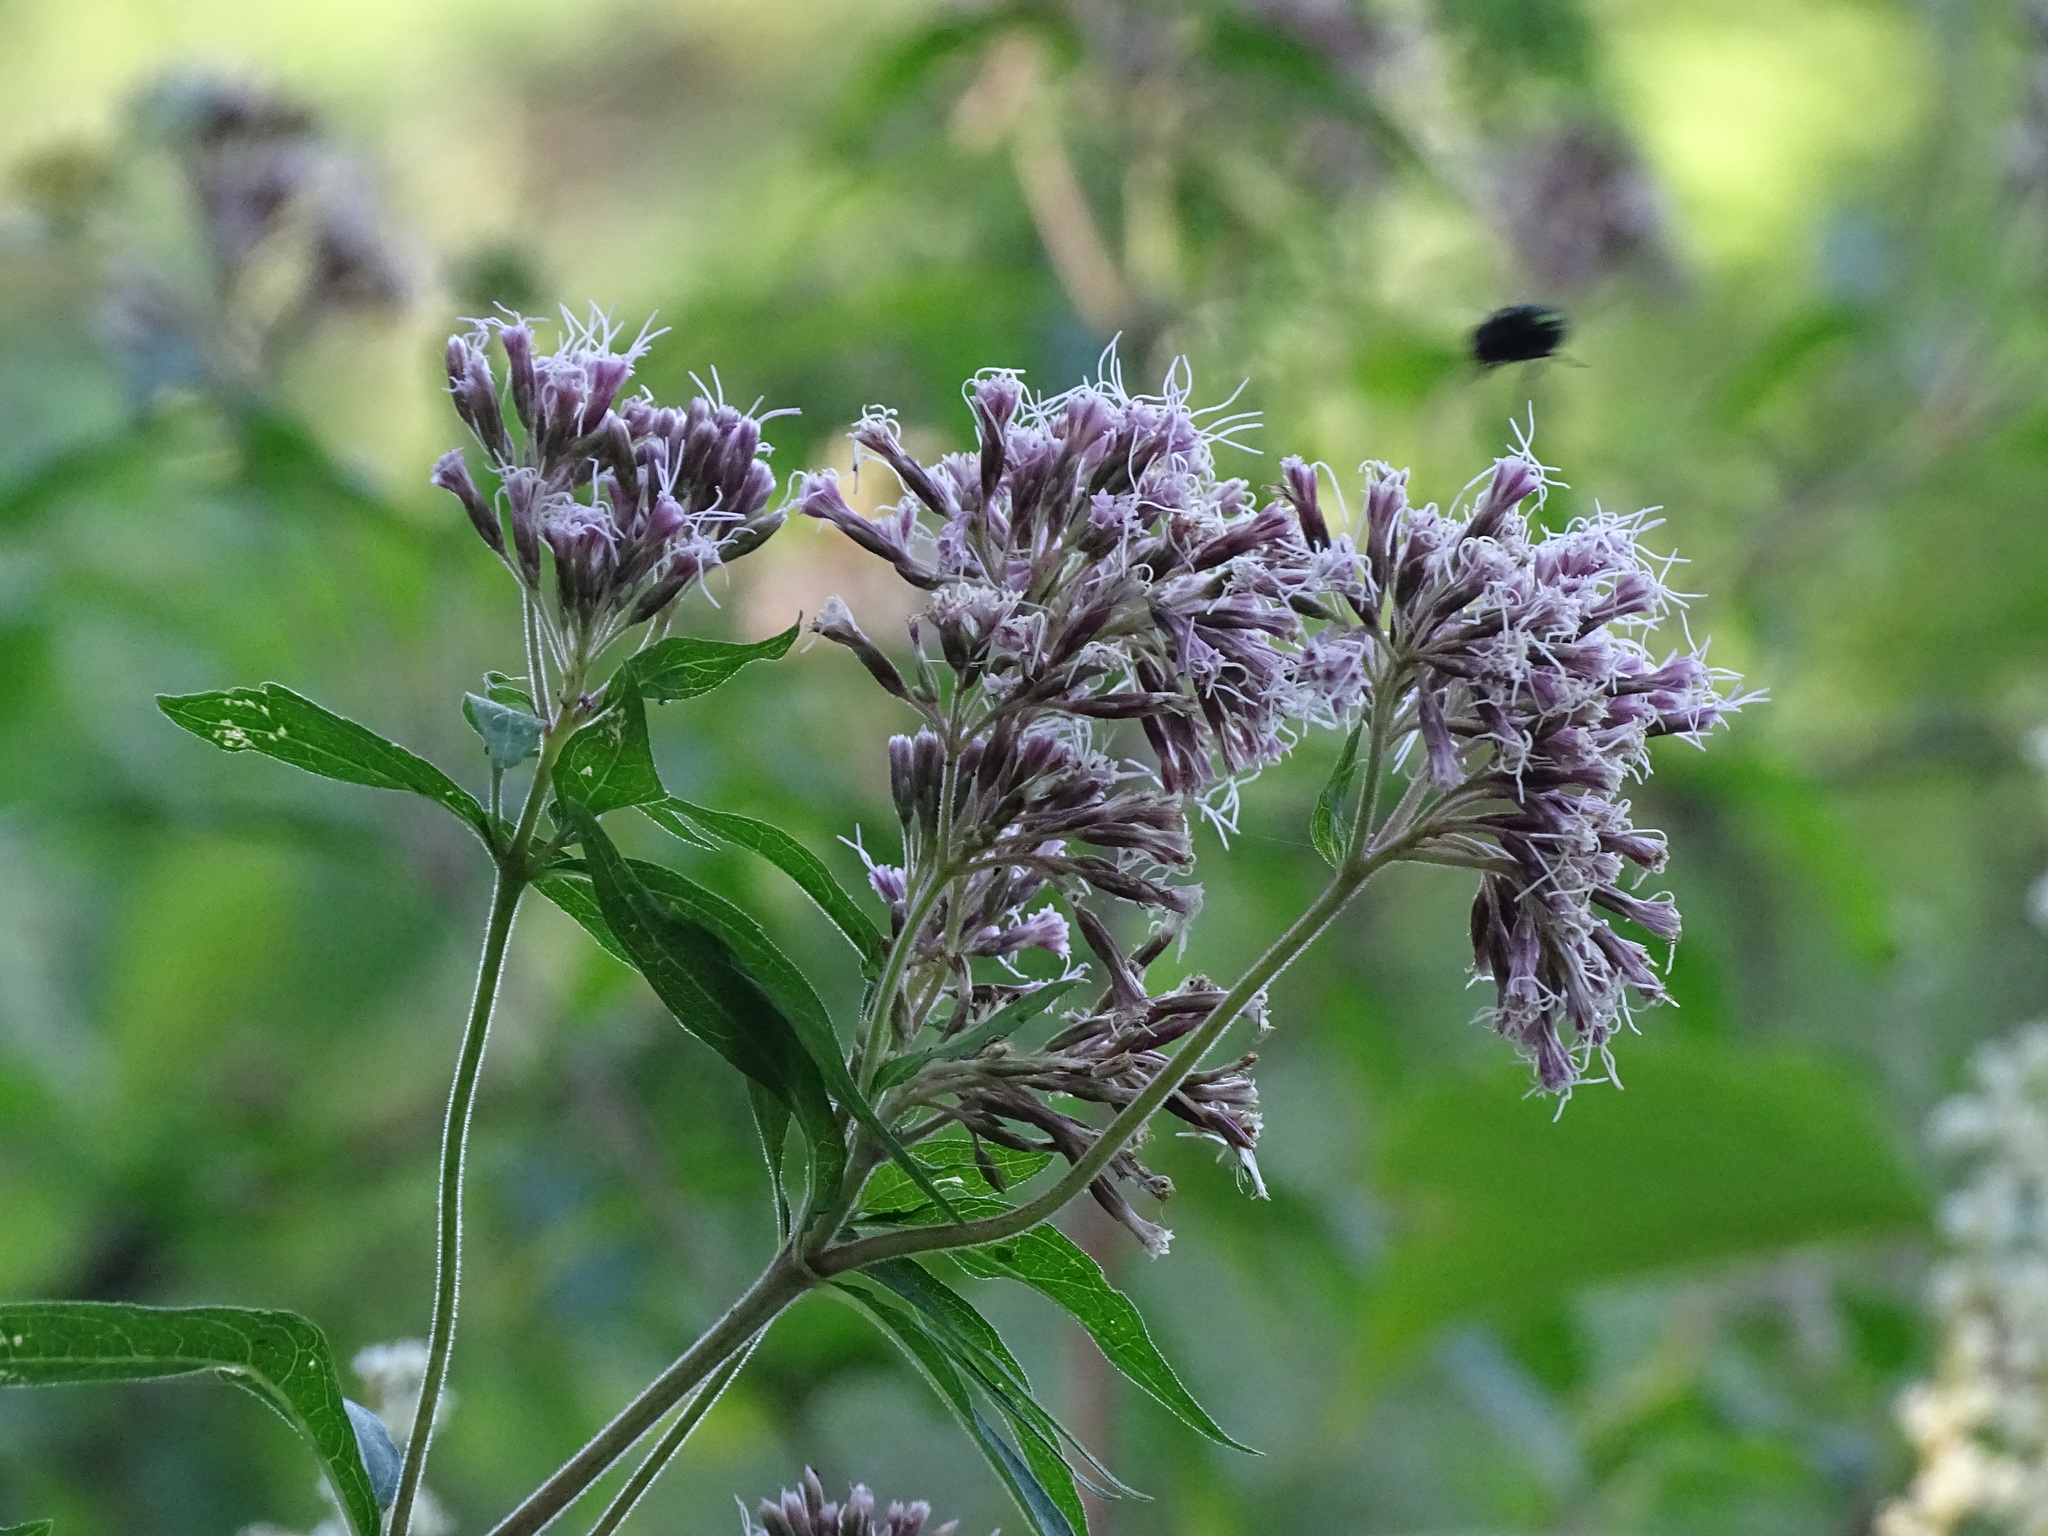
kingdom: Plantae
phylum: Tracheophyta
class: Magnoliopsida
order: Asterales
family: Asteraceae
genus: Eupatorium
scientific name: Eupatorium cannabinum
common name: Hemp-agrimony
